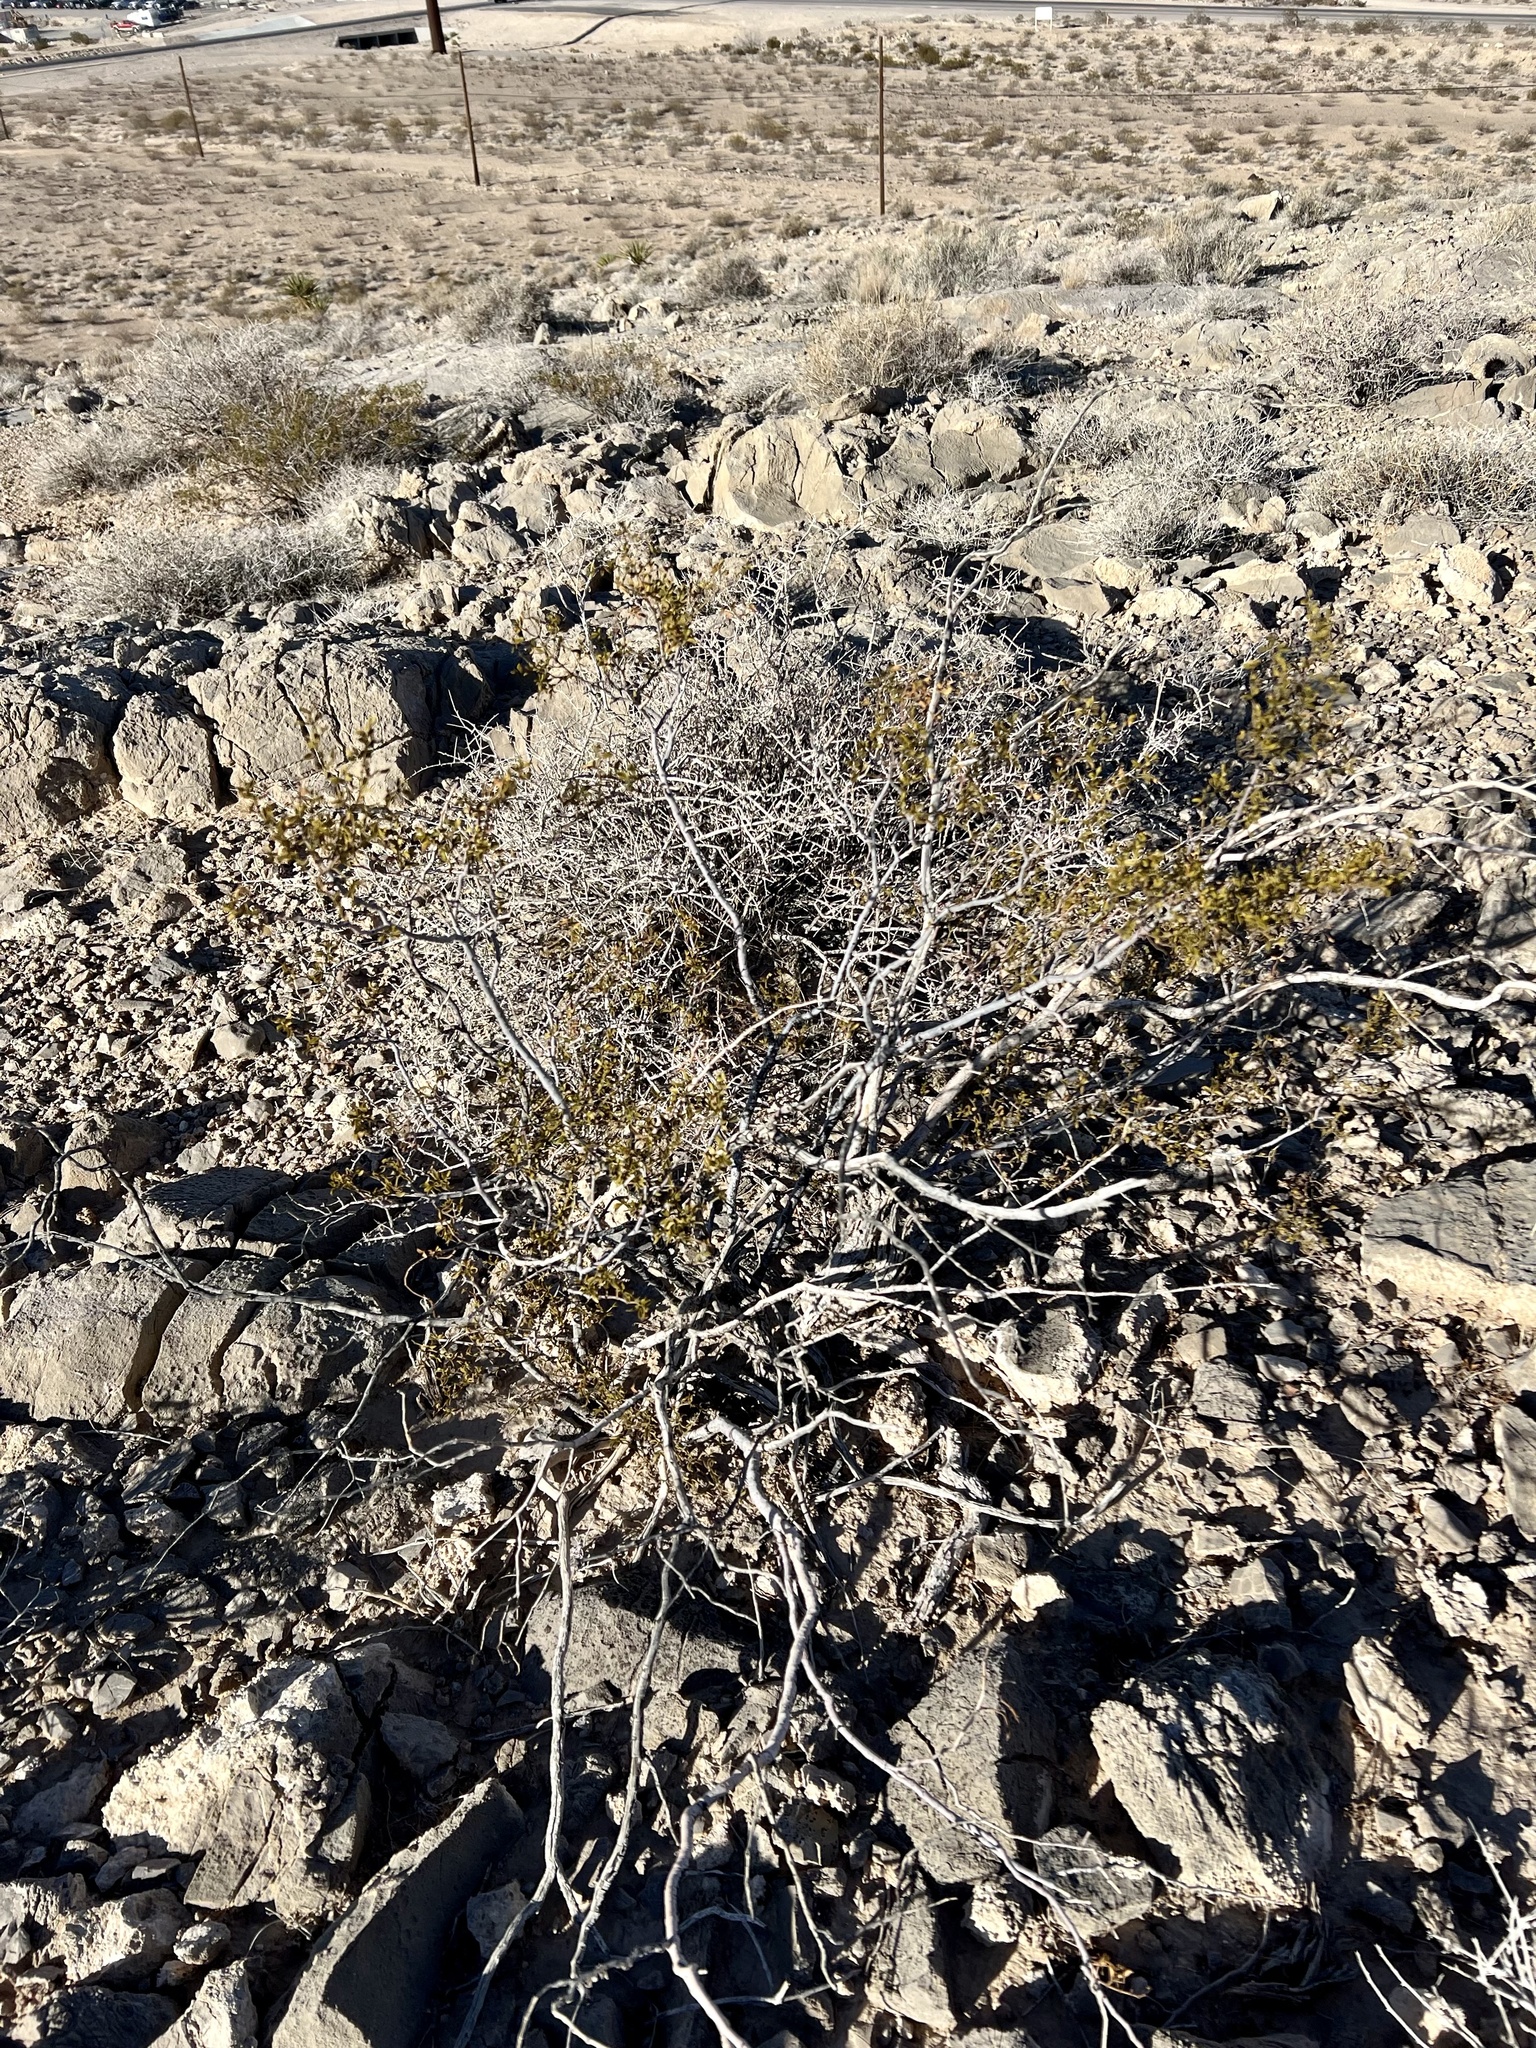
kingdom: Plantae
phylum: Tracheophyta
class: Magnoliopsida
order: Zygophyllales
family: Zygophyllaceae
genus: Larrea
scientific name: Larrea tridentata
